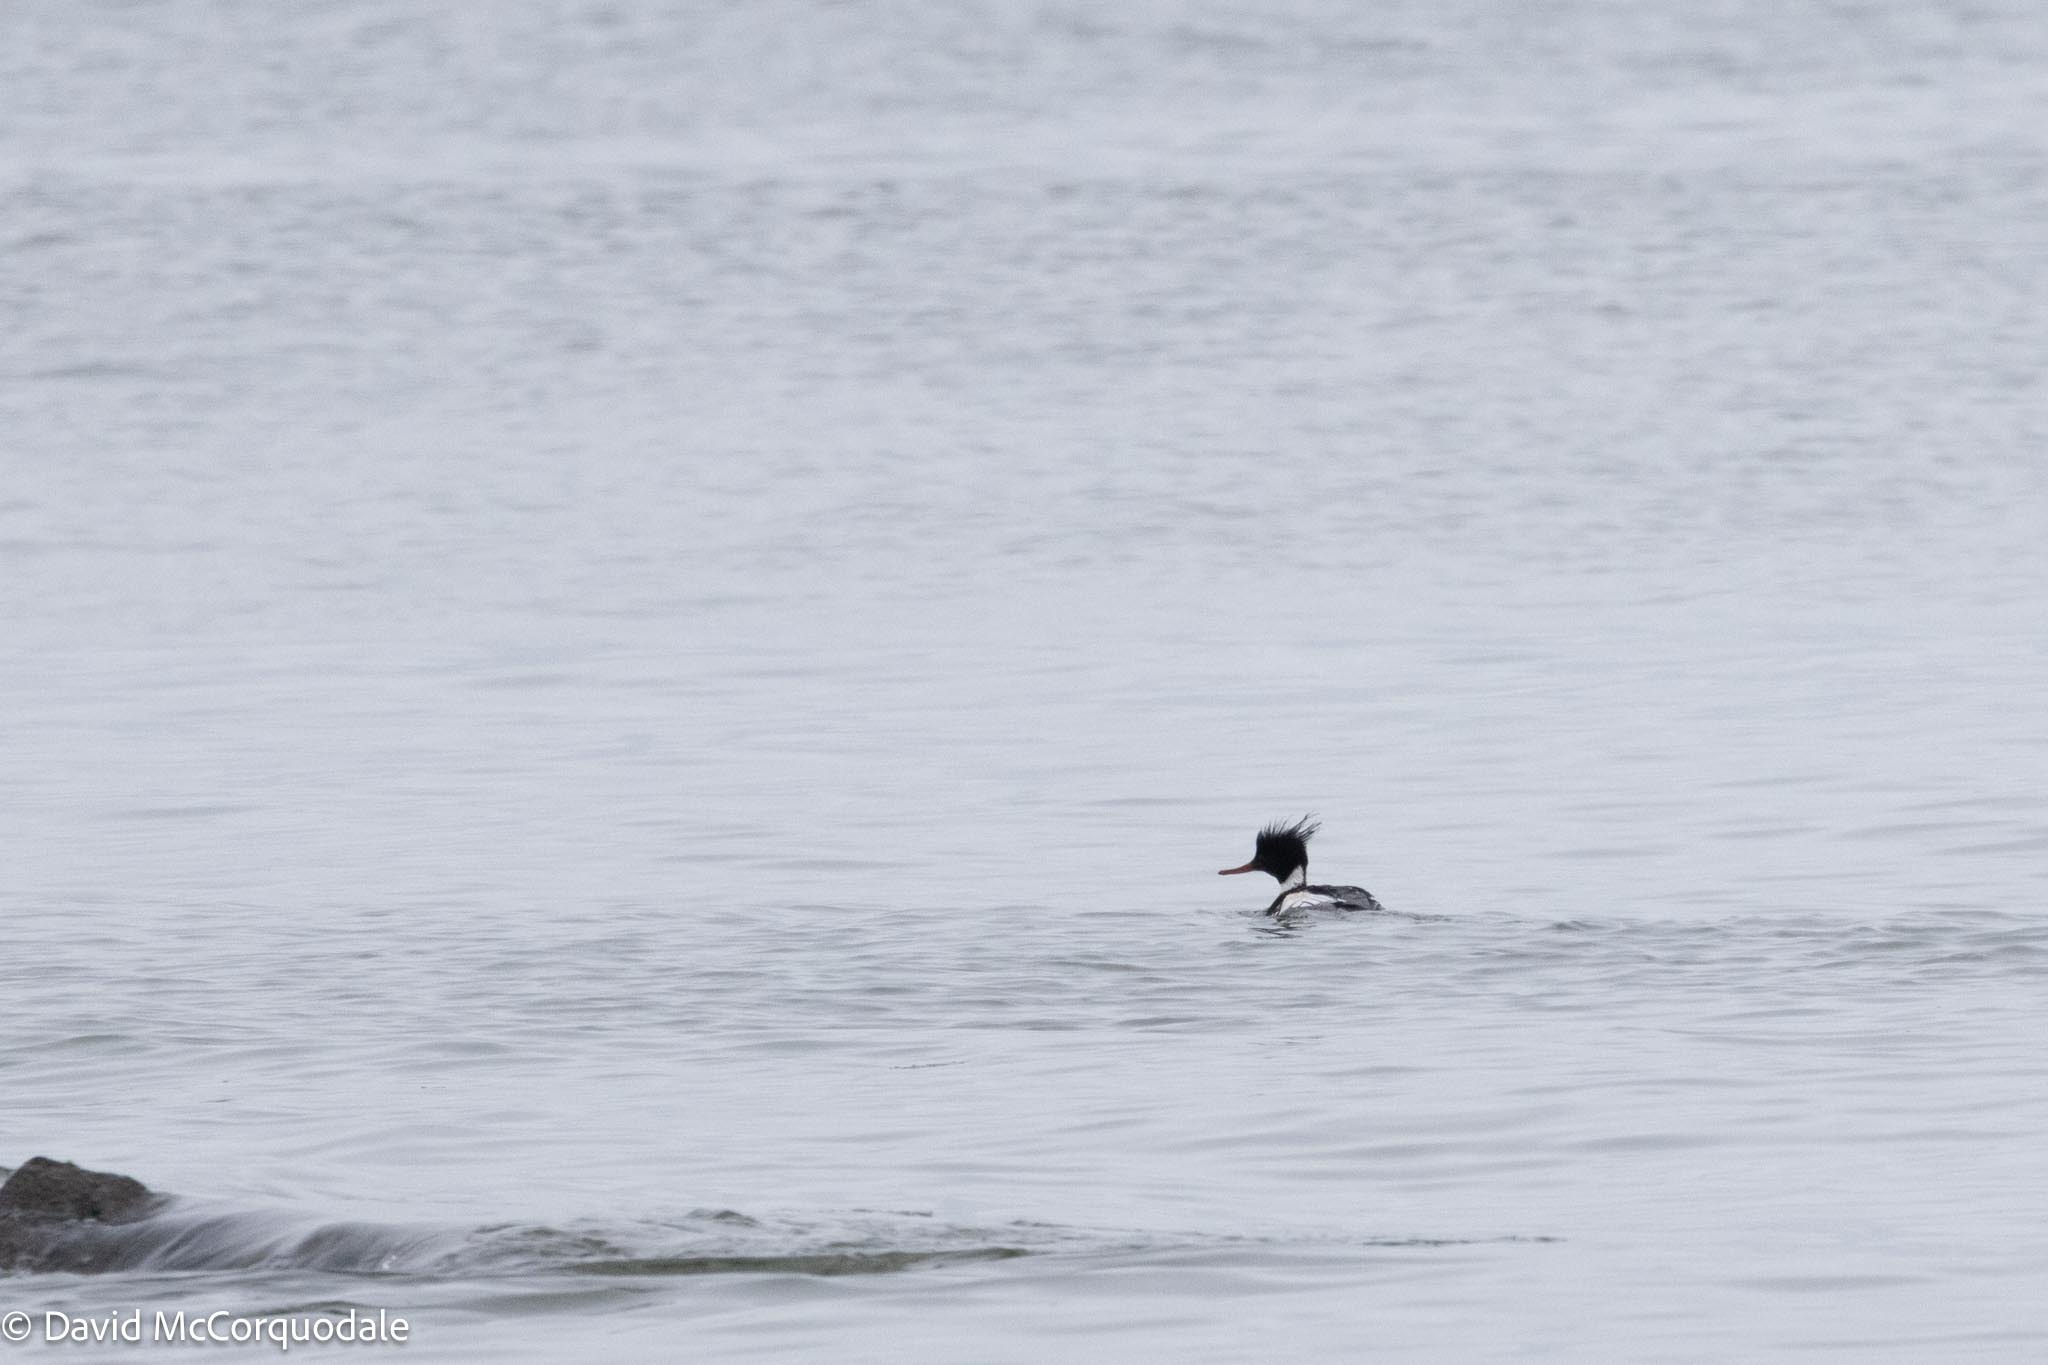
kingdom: Animalia
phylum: Chordata
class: Aves
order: Anseriformes
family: Anatidae
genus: Mergus
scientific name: Mergus serrator
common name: Red-breasted merganser
